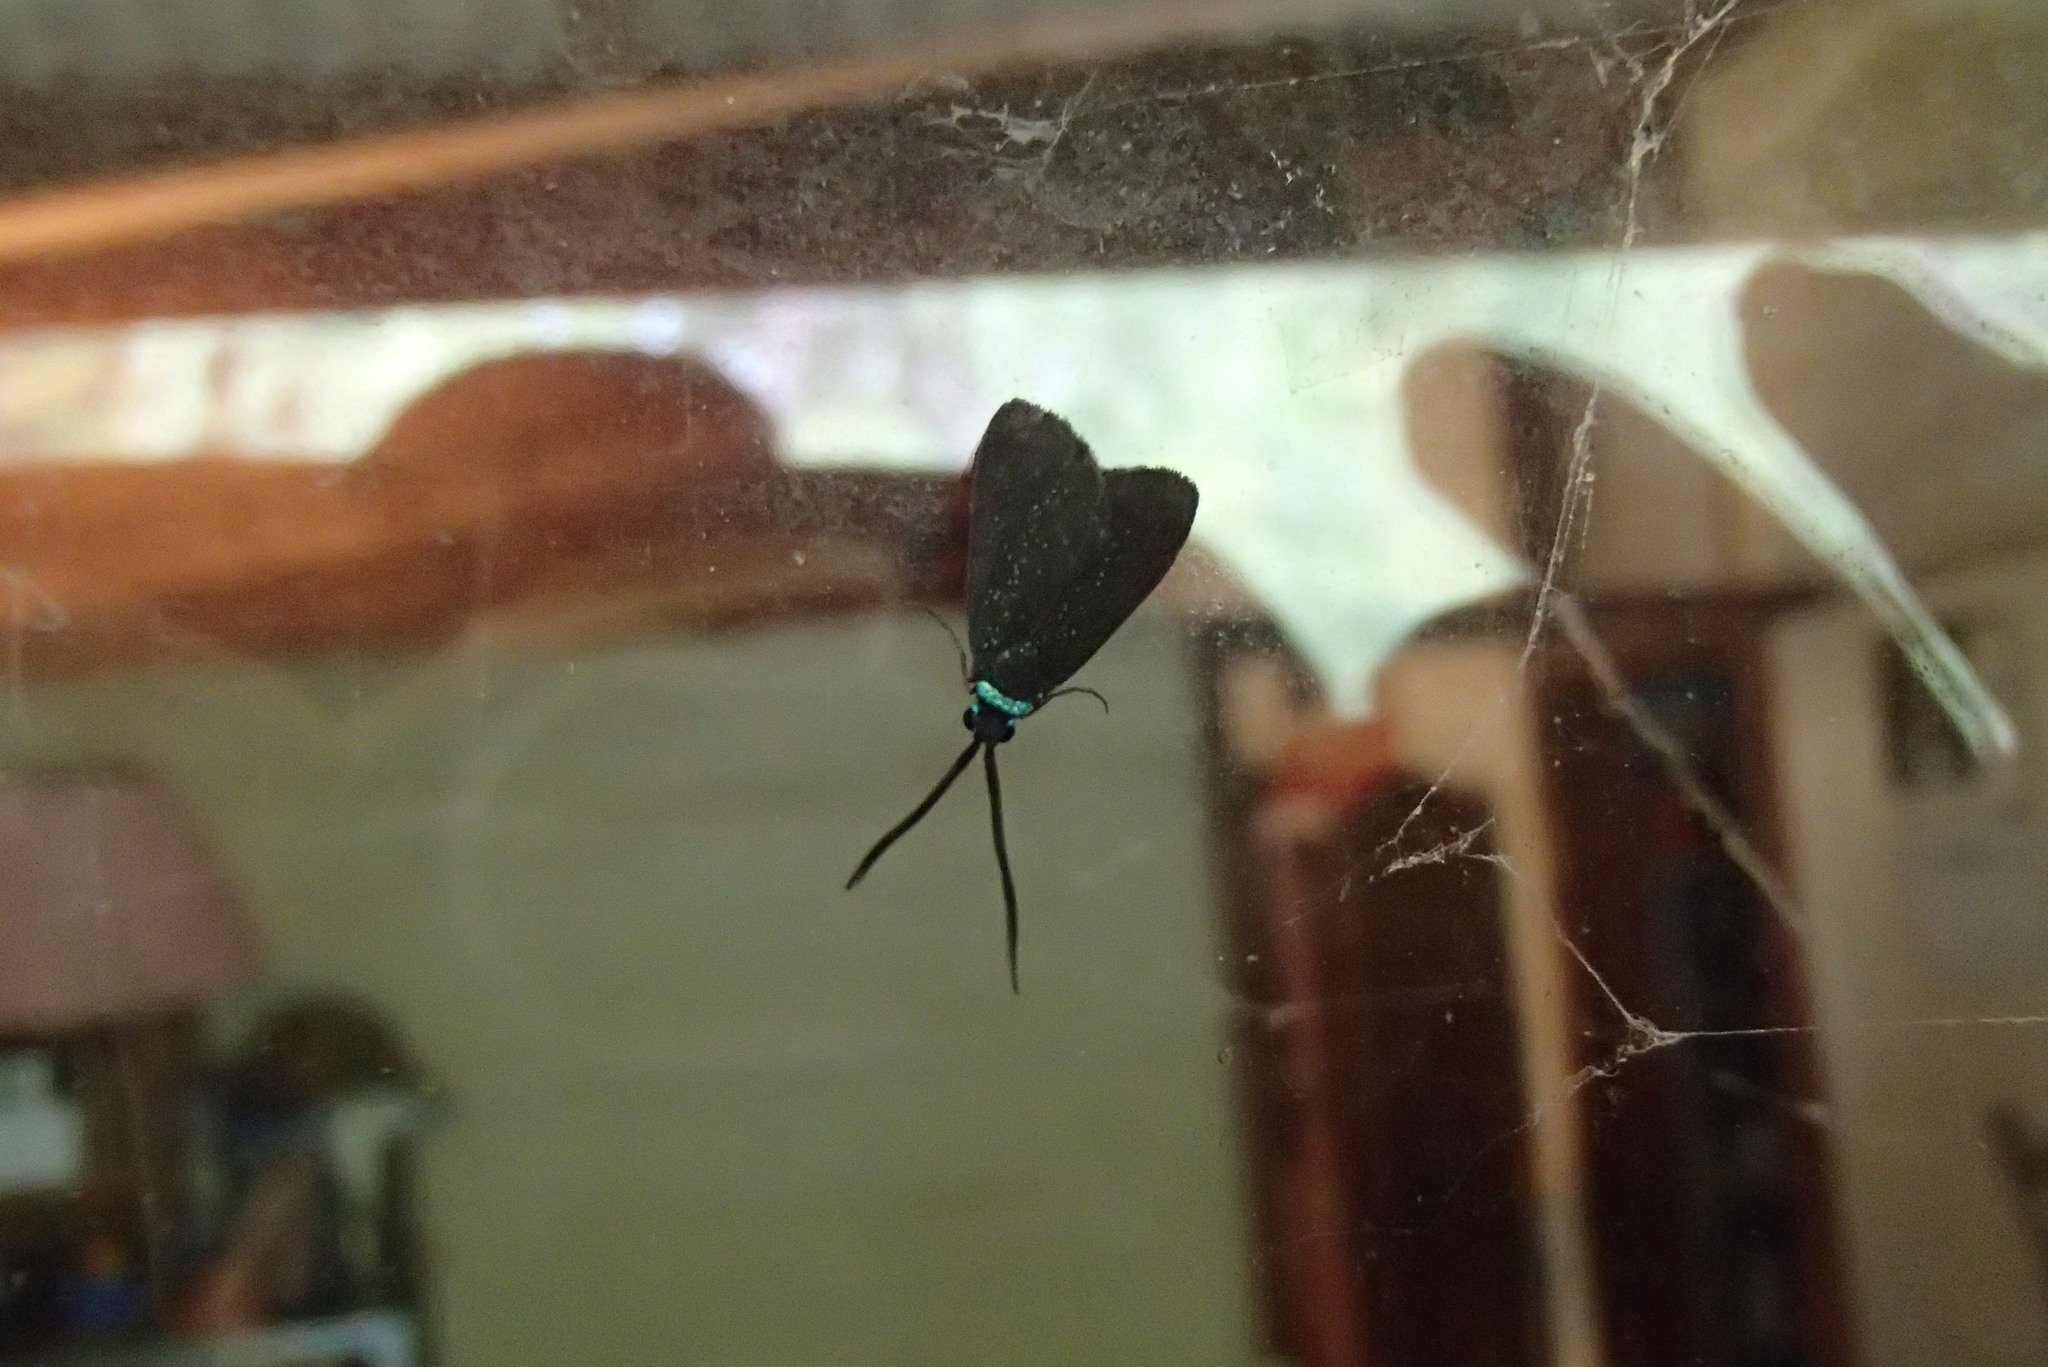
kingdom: Animalia
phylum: Arthropoda
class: Insecta
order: Lepidoptera
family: Zygaenidae
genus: Pollanisus
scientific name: Pollanisus lithopastus
